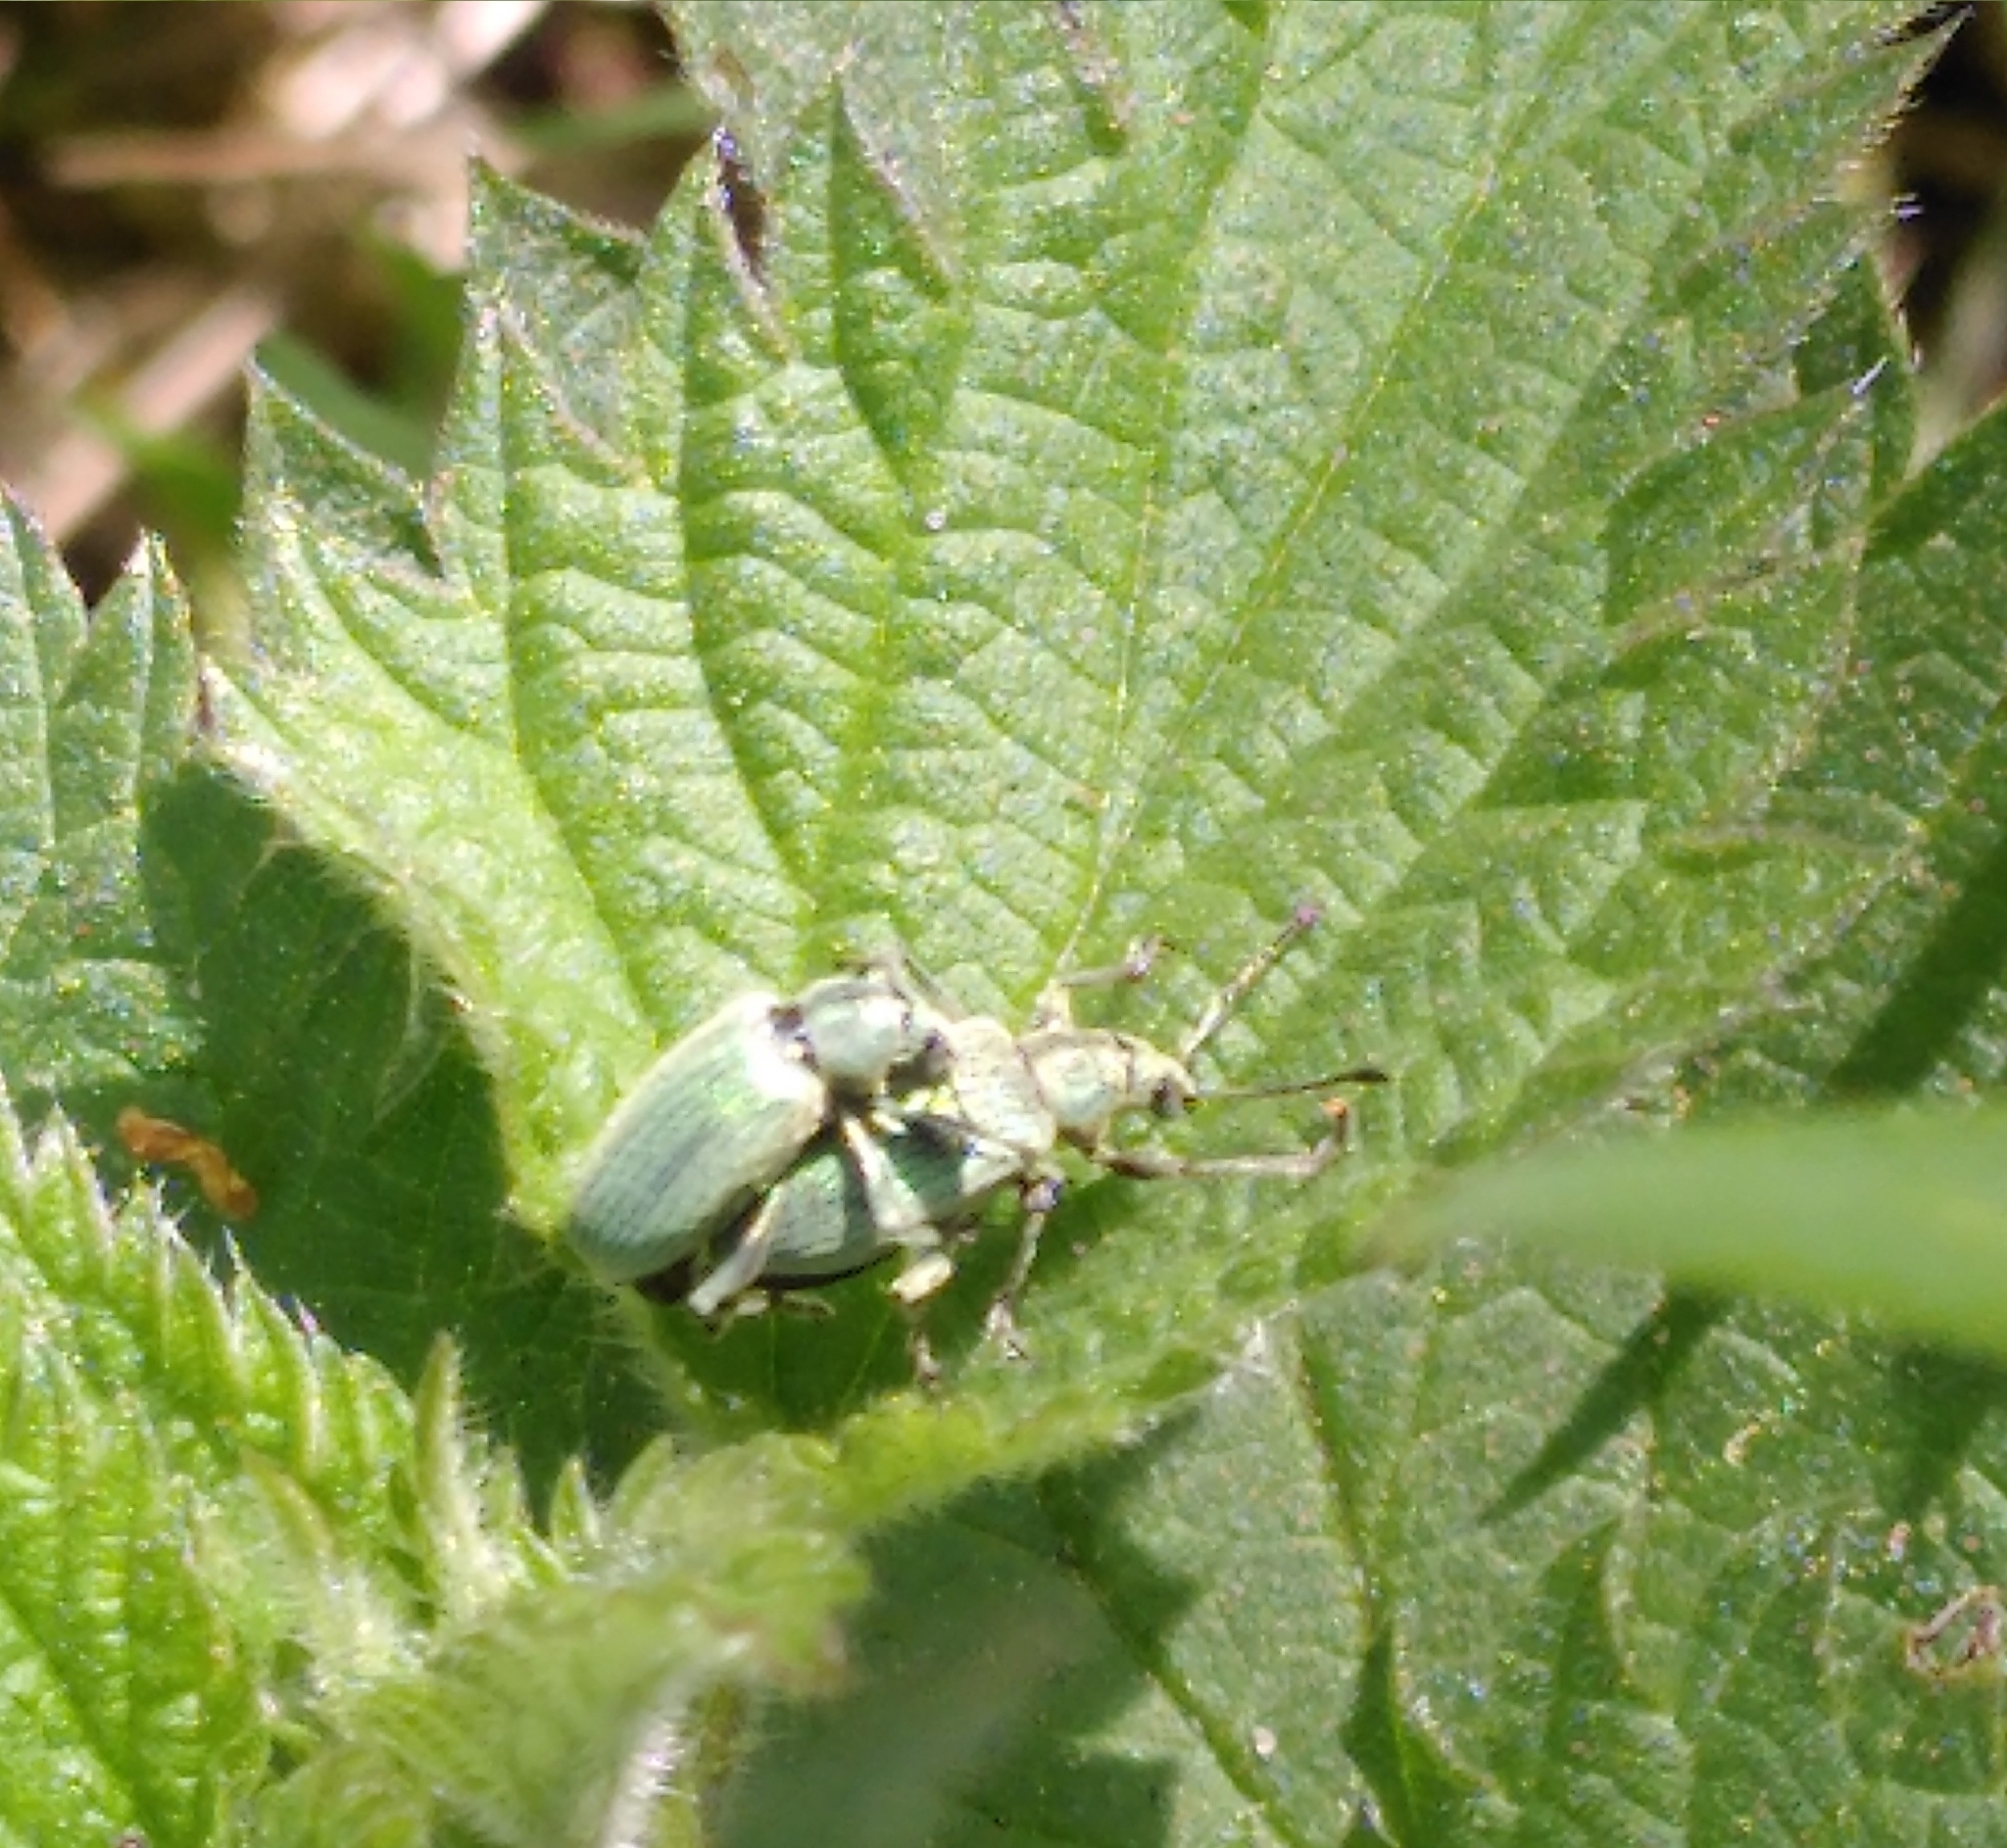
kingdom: Animalia
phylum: Arthropoda
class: Insecta
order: Coleoptera
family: Curculionidae
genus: Phyllobius
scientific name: Phyllobius pomaceus
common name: Green nettle weevil
